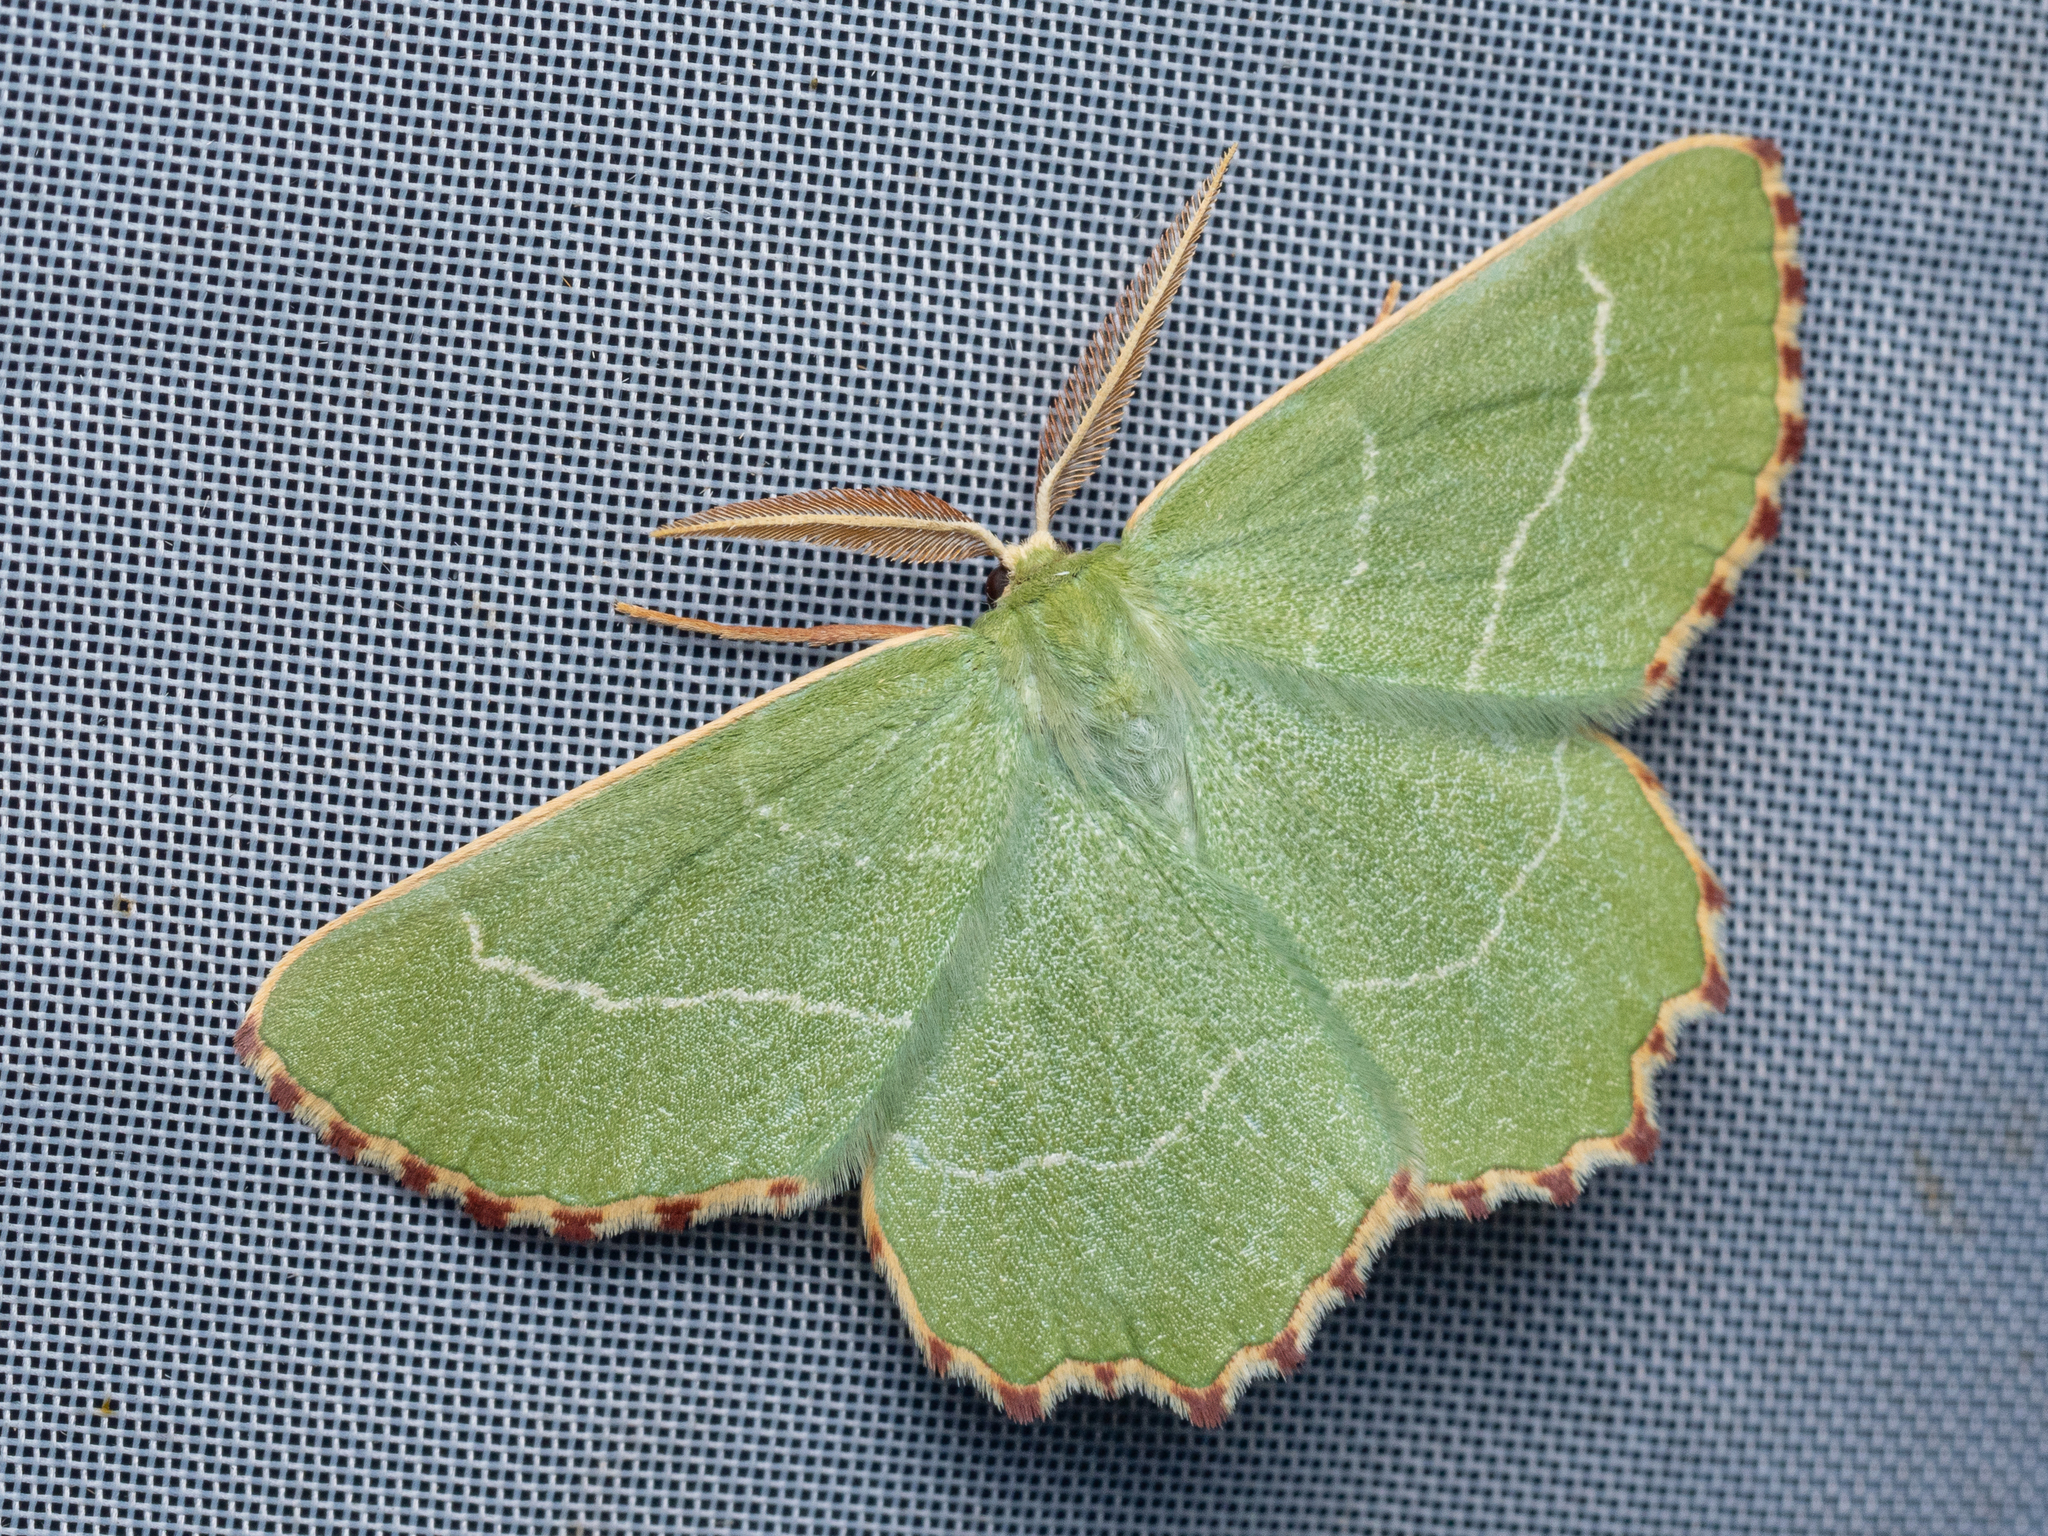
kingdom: Animalia
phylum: Arthropoda
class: Insecta
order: Lepidoptera
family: Geometridae
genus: Thalera
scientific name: Thalera fimbrialis
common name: Sussex emerald
